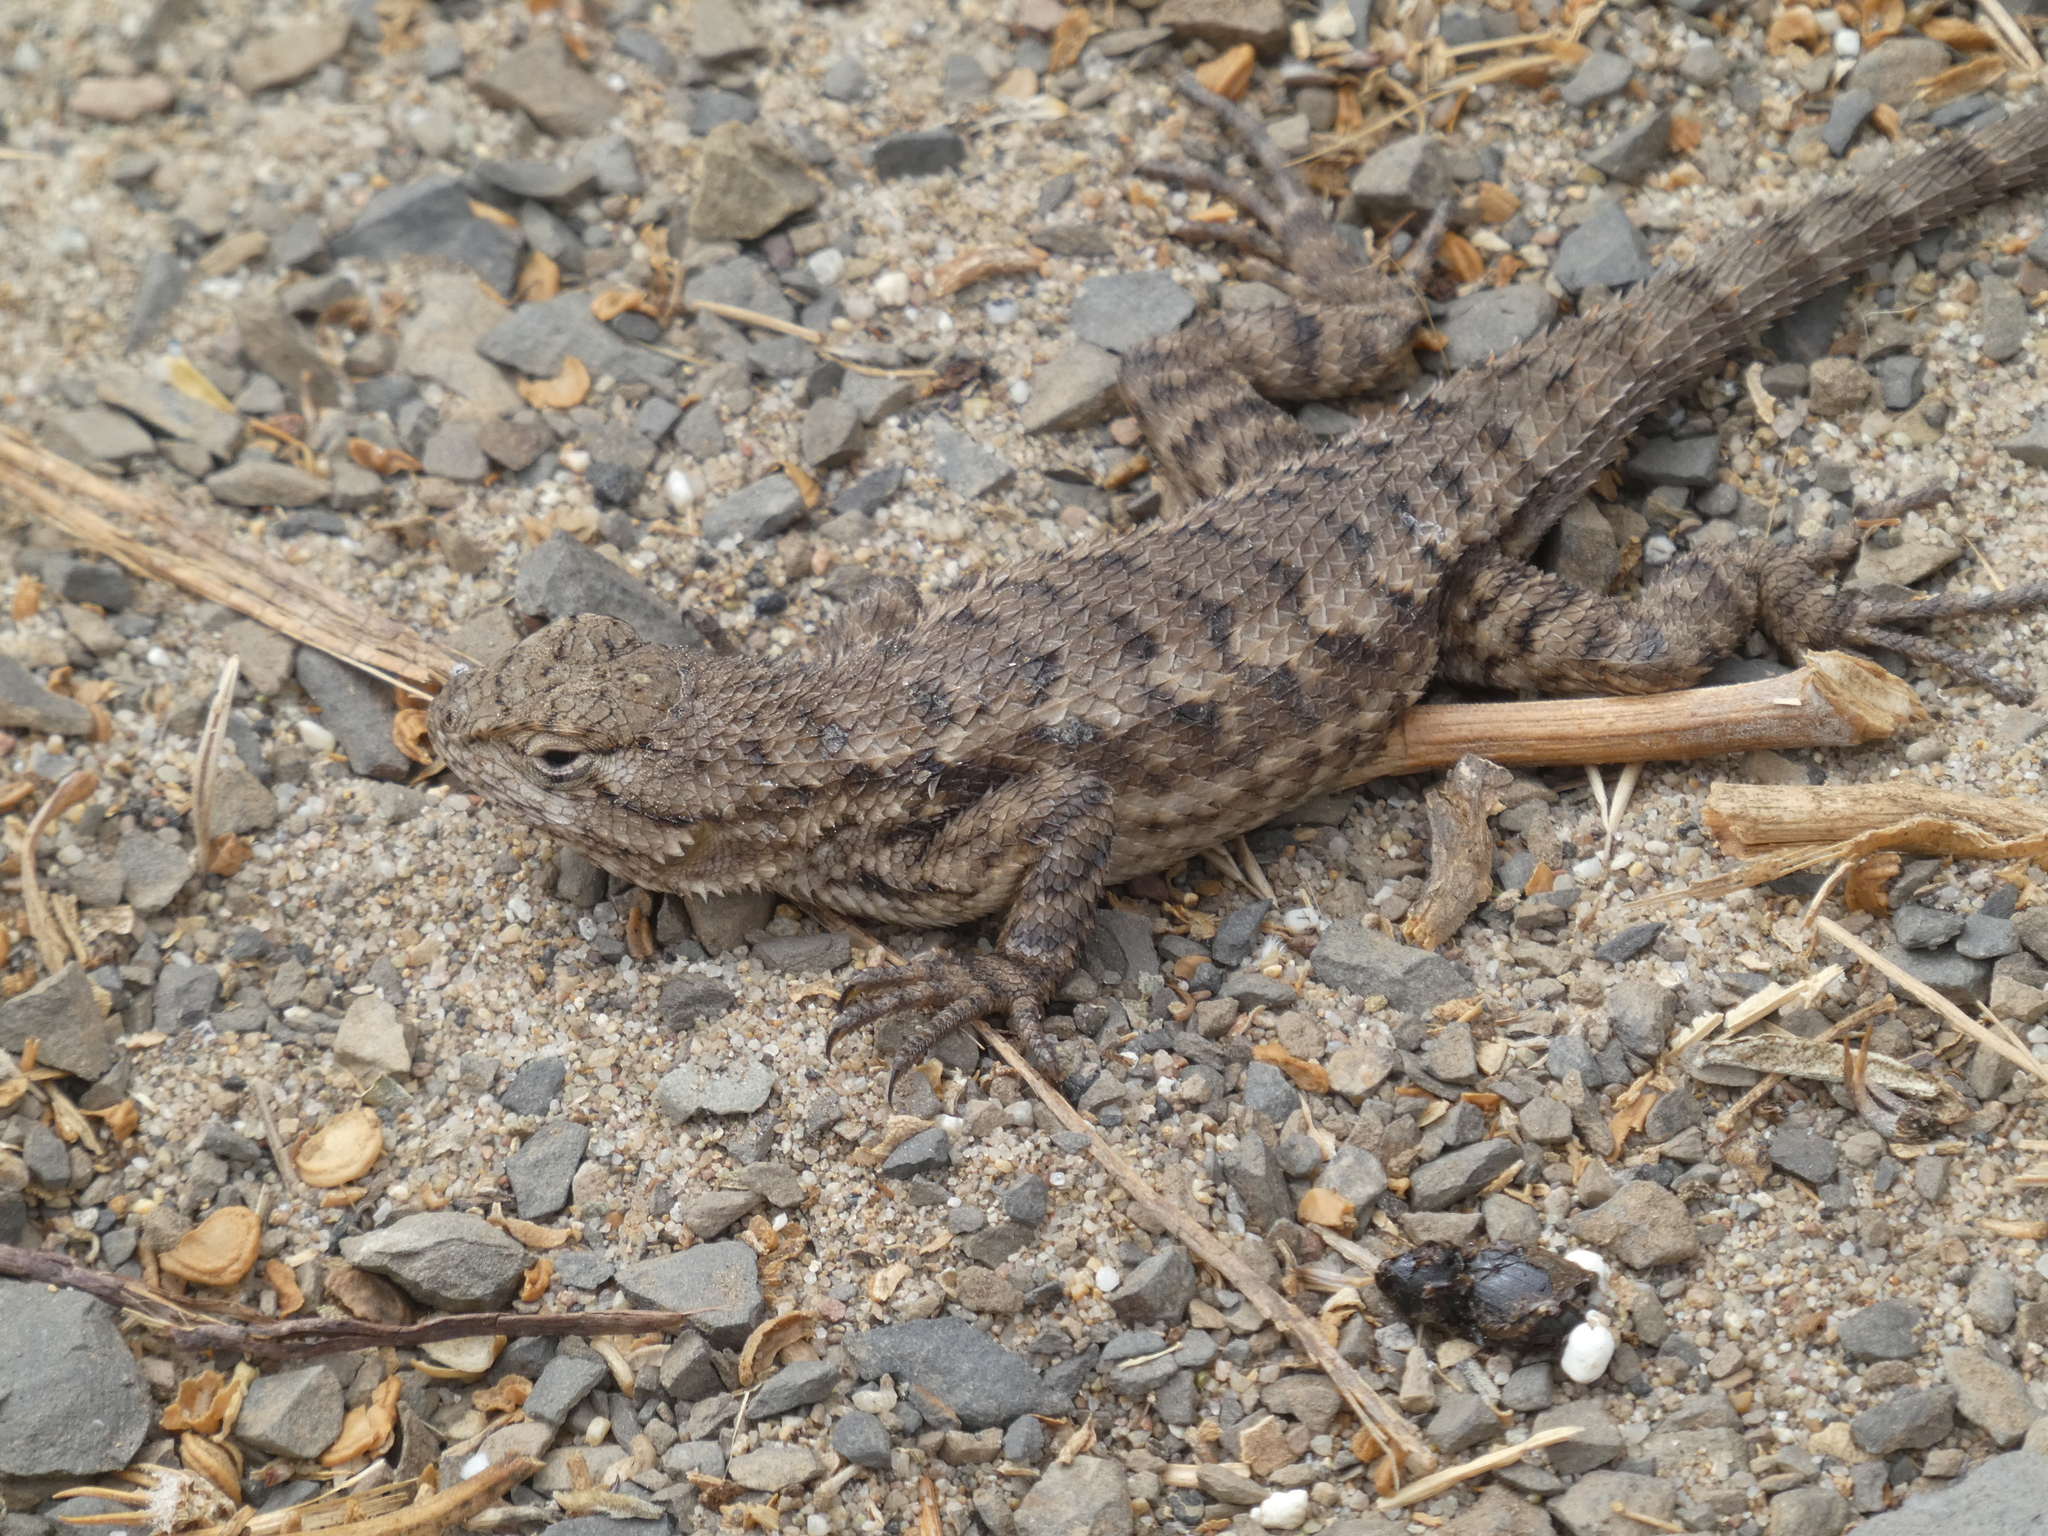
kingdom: Animalia
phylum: Chordata
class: Squamata
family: Phrynosomatidae
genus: Sceloporus
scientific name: Sceloporus occidentalis
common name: Western fence lizard
